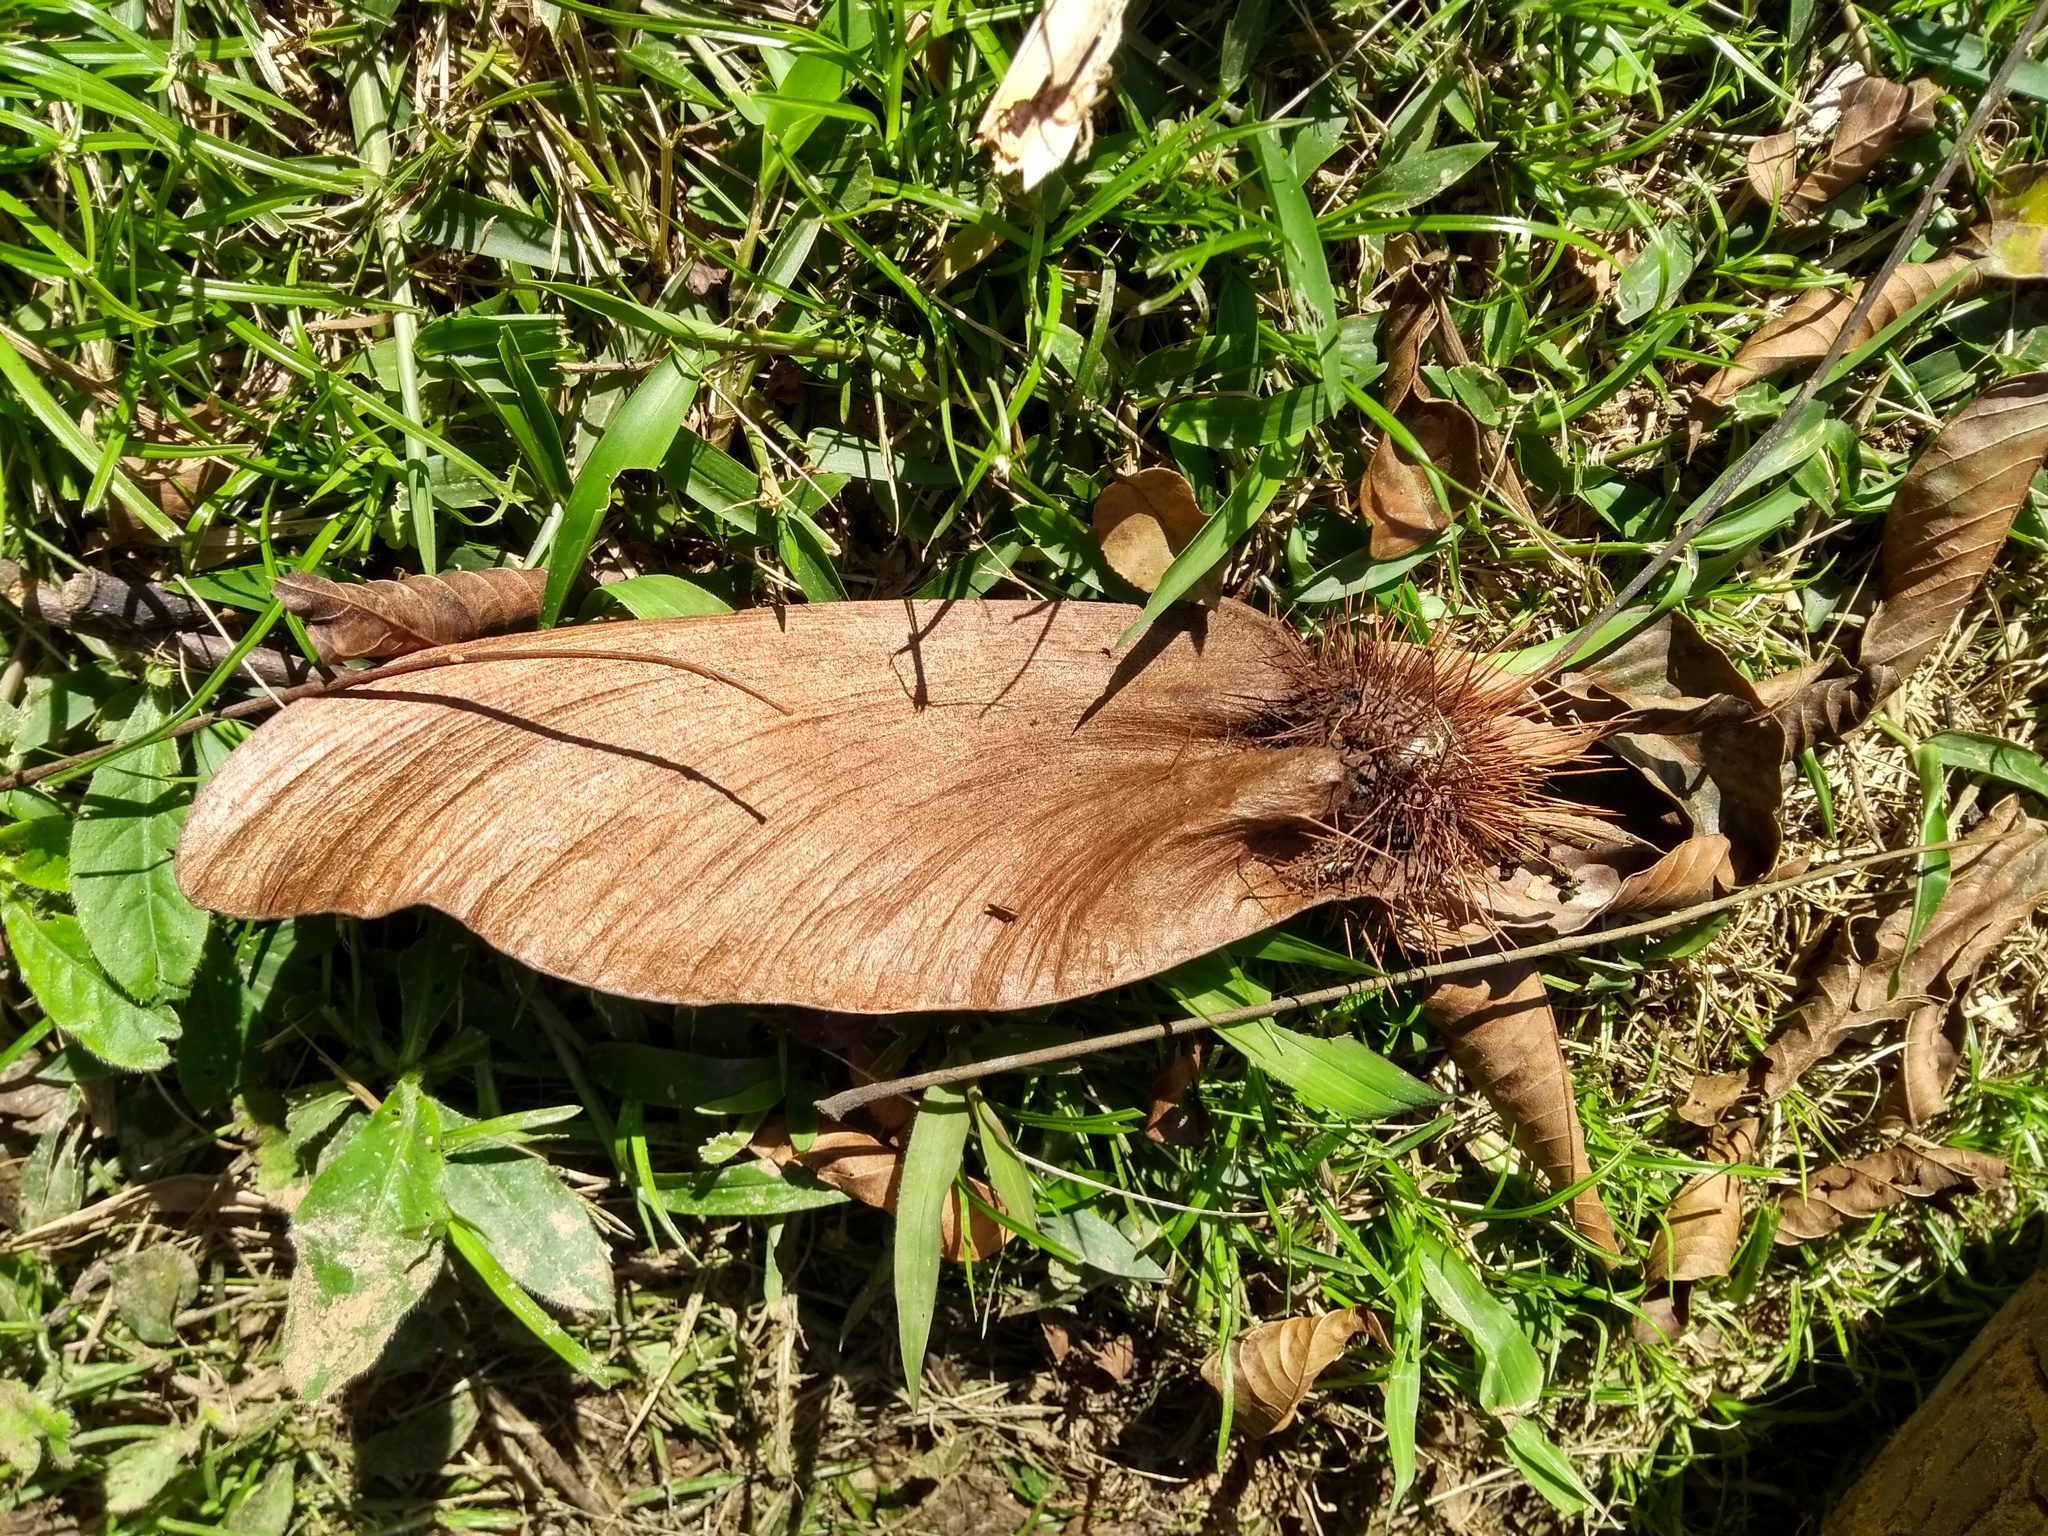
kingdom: Plantae
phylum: Tracheophyta
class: Magnoliopsida
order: Fabales
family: Fabaceae
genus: Centrolobium
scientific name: Centrolobium tomentosum
